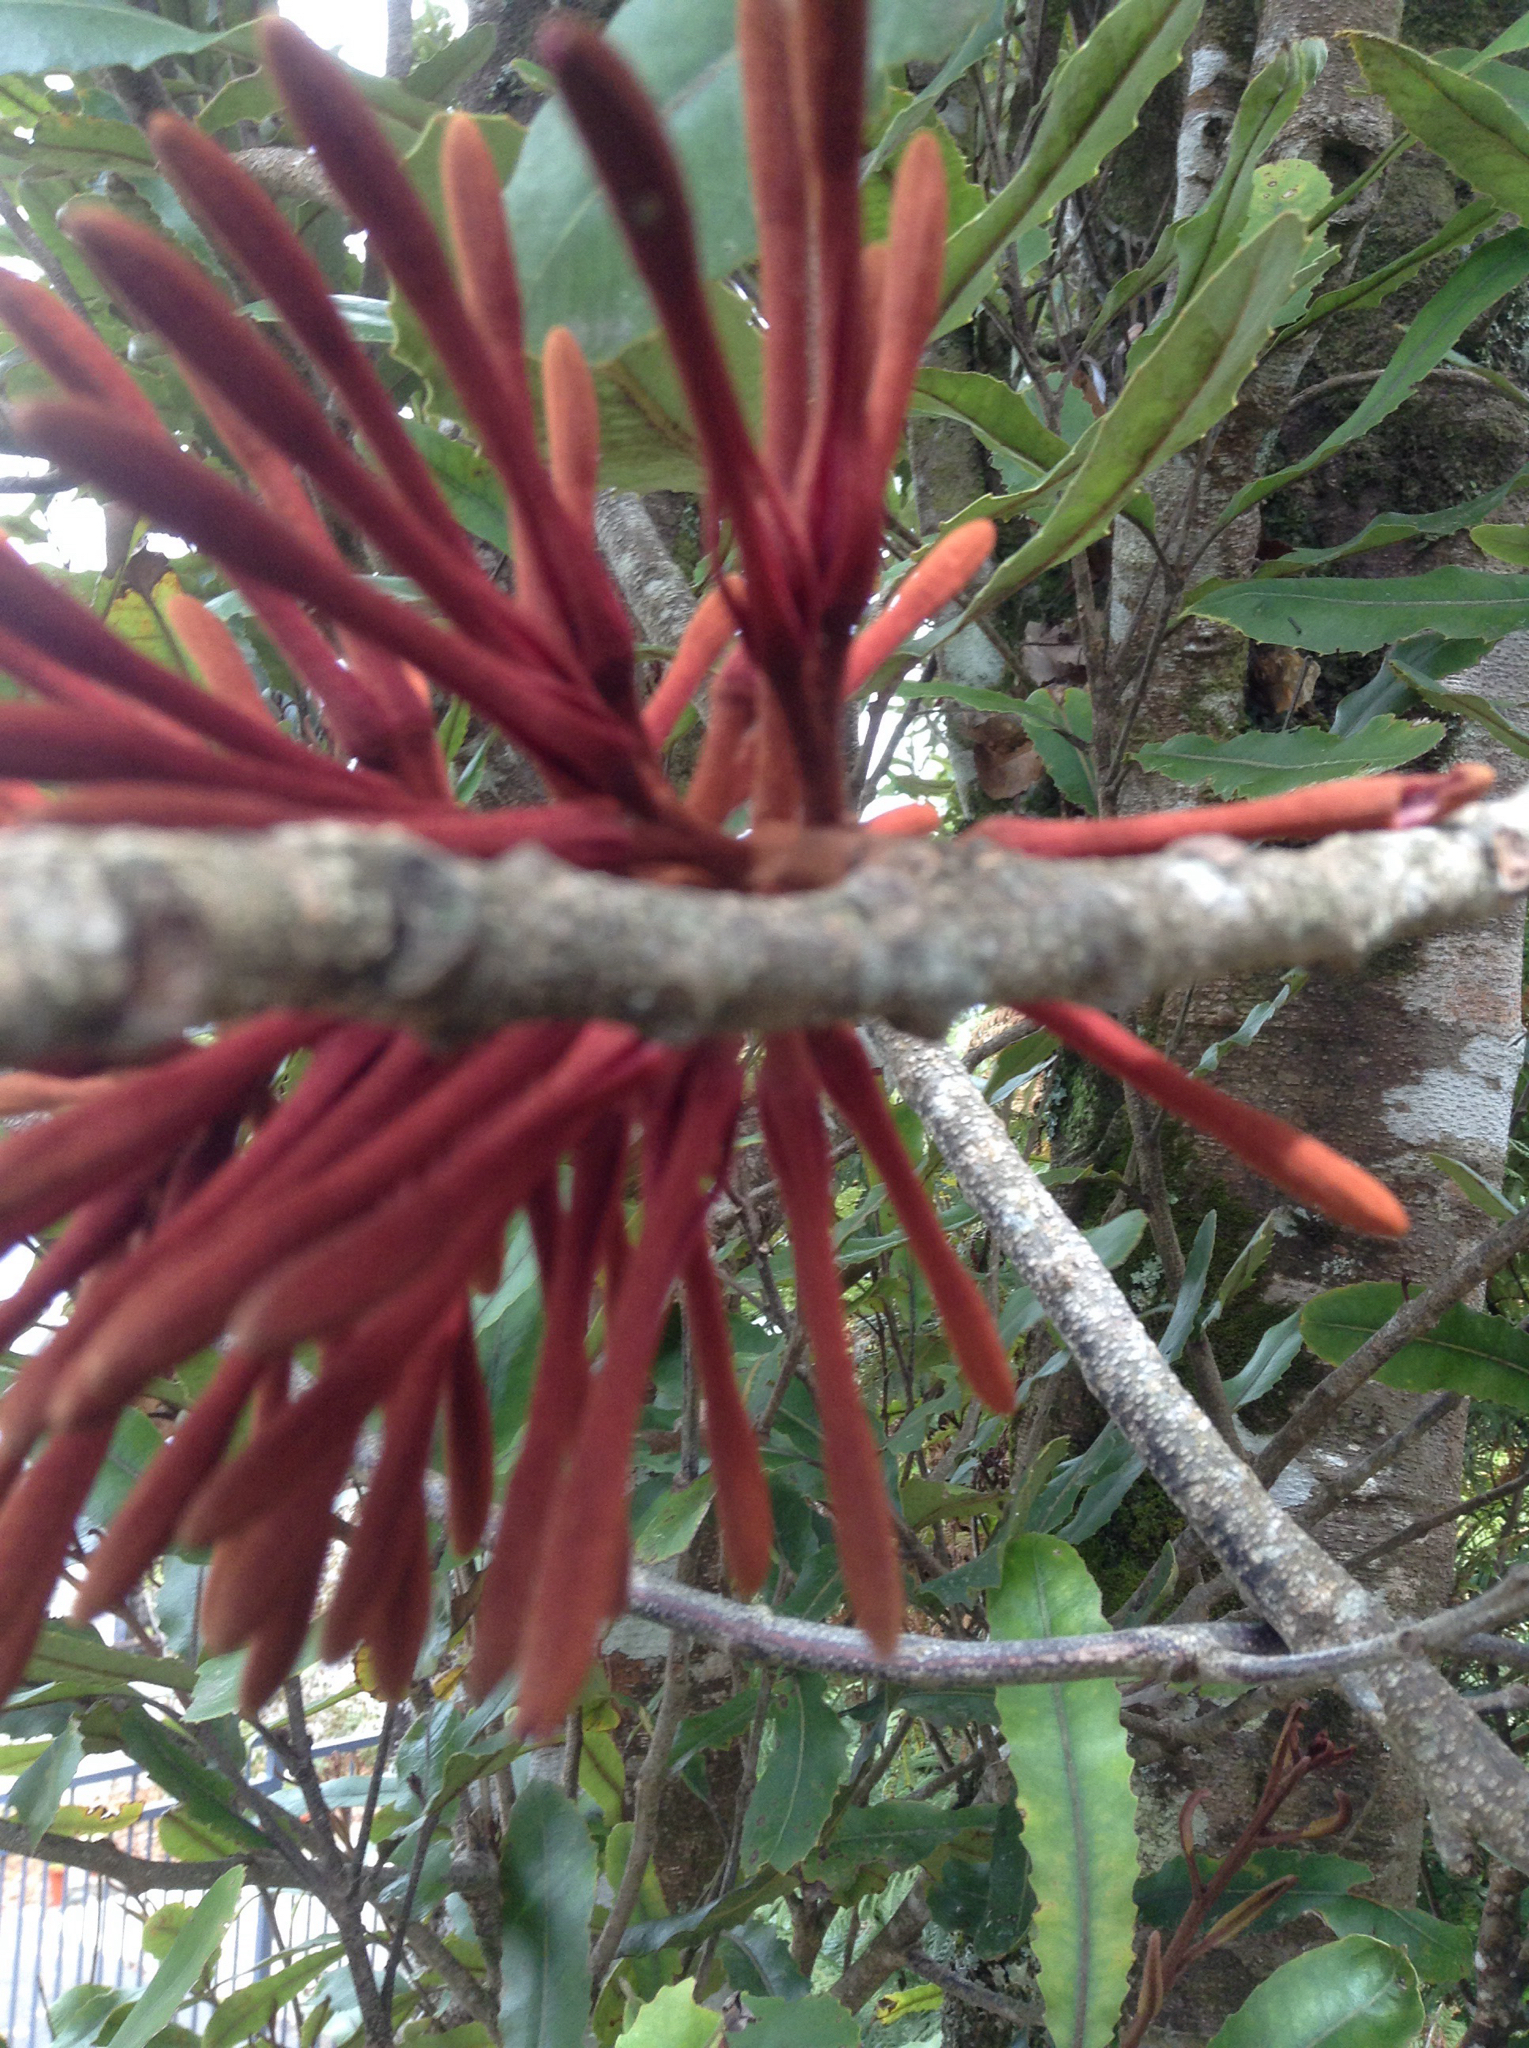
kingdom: Plantae
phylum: Tracheophyta
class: Magnoliopsida
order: Proteales
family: Proteaceae
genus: Knightia
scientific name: Knightia excelsa
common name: New zealand-honeysuckle
